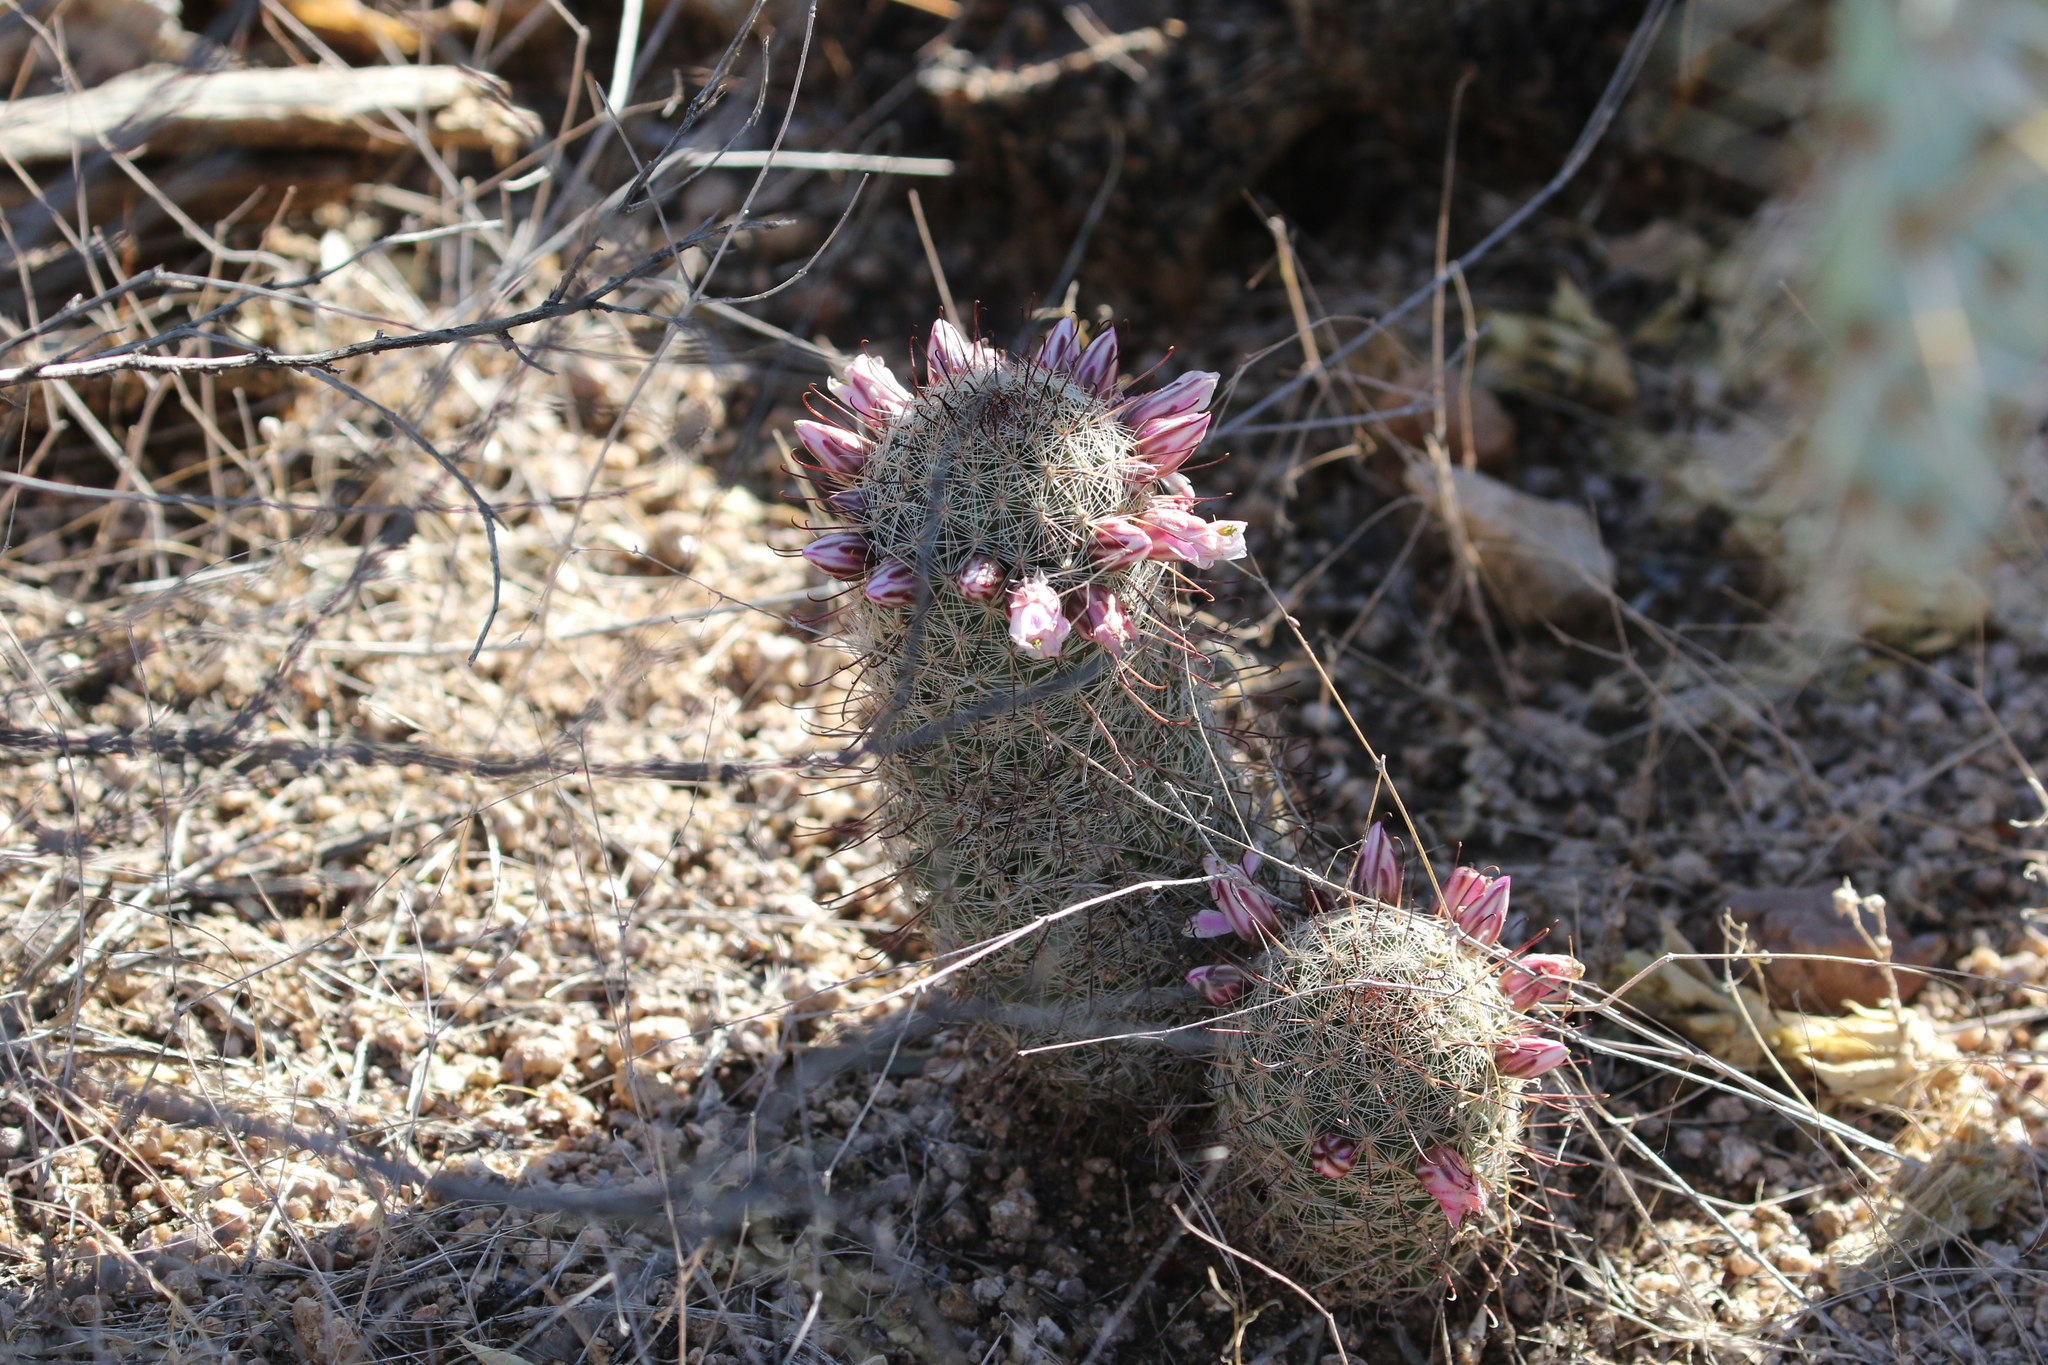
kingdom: Plantae
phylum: Tracheophyta
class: Magnoliopsida
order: Caryophyllales
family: Cactaceae
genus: Cochemiea
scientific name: Cochemiea grahamii
